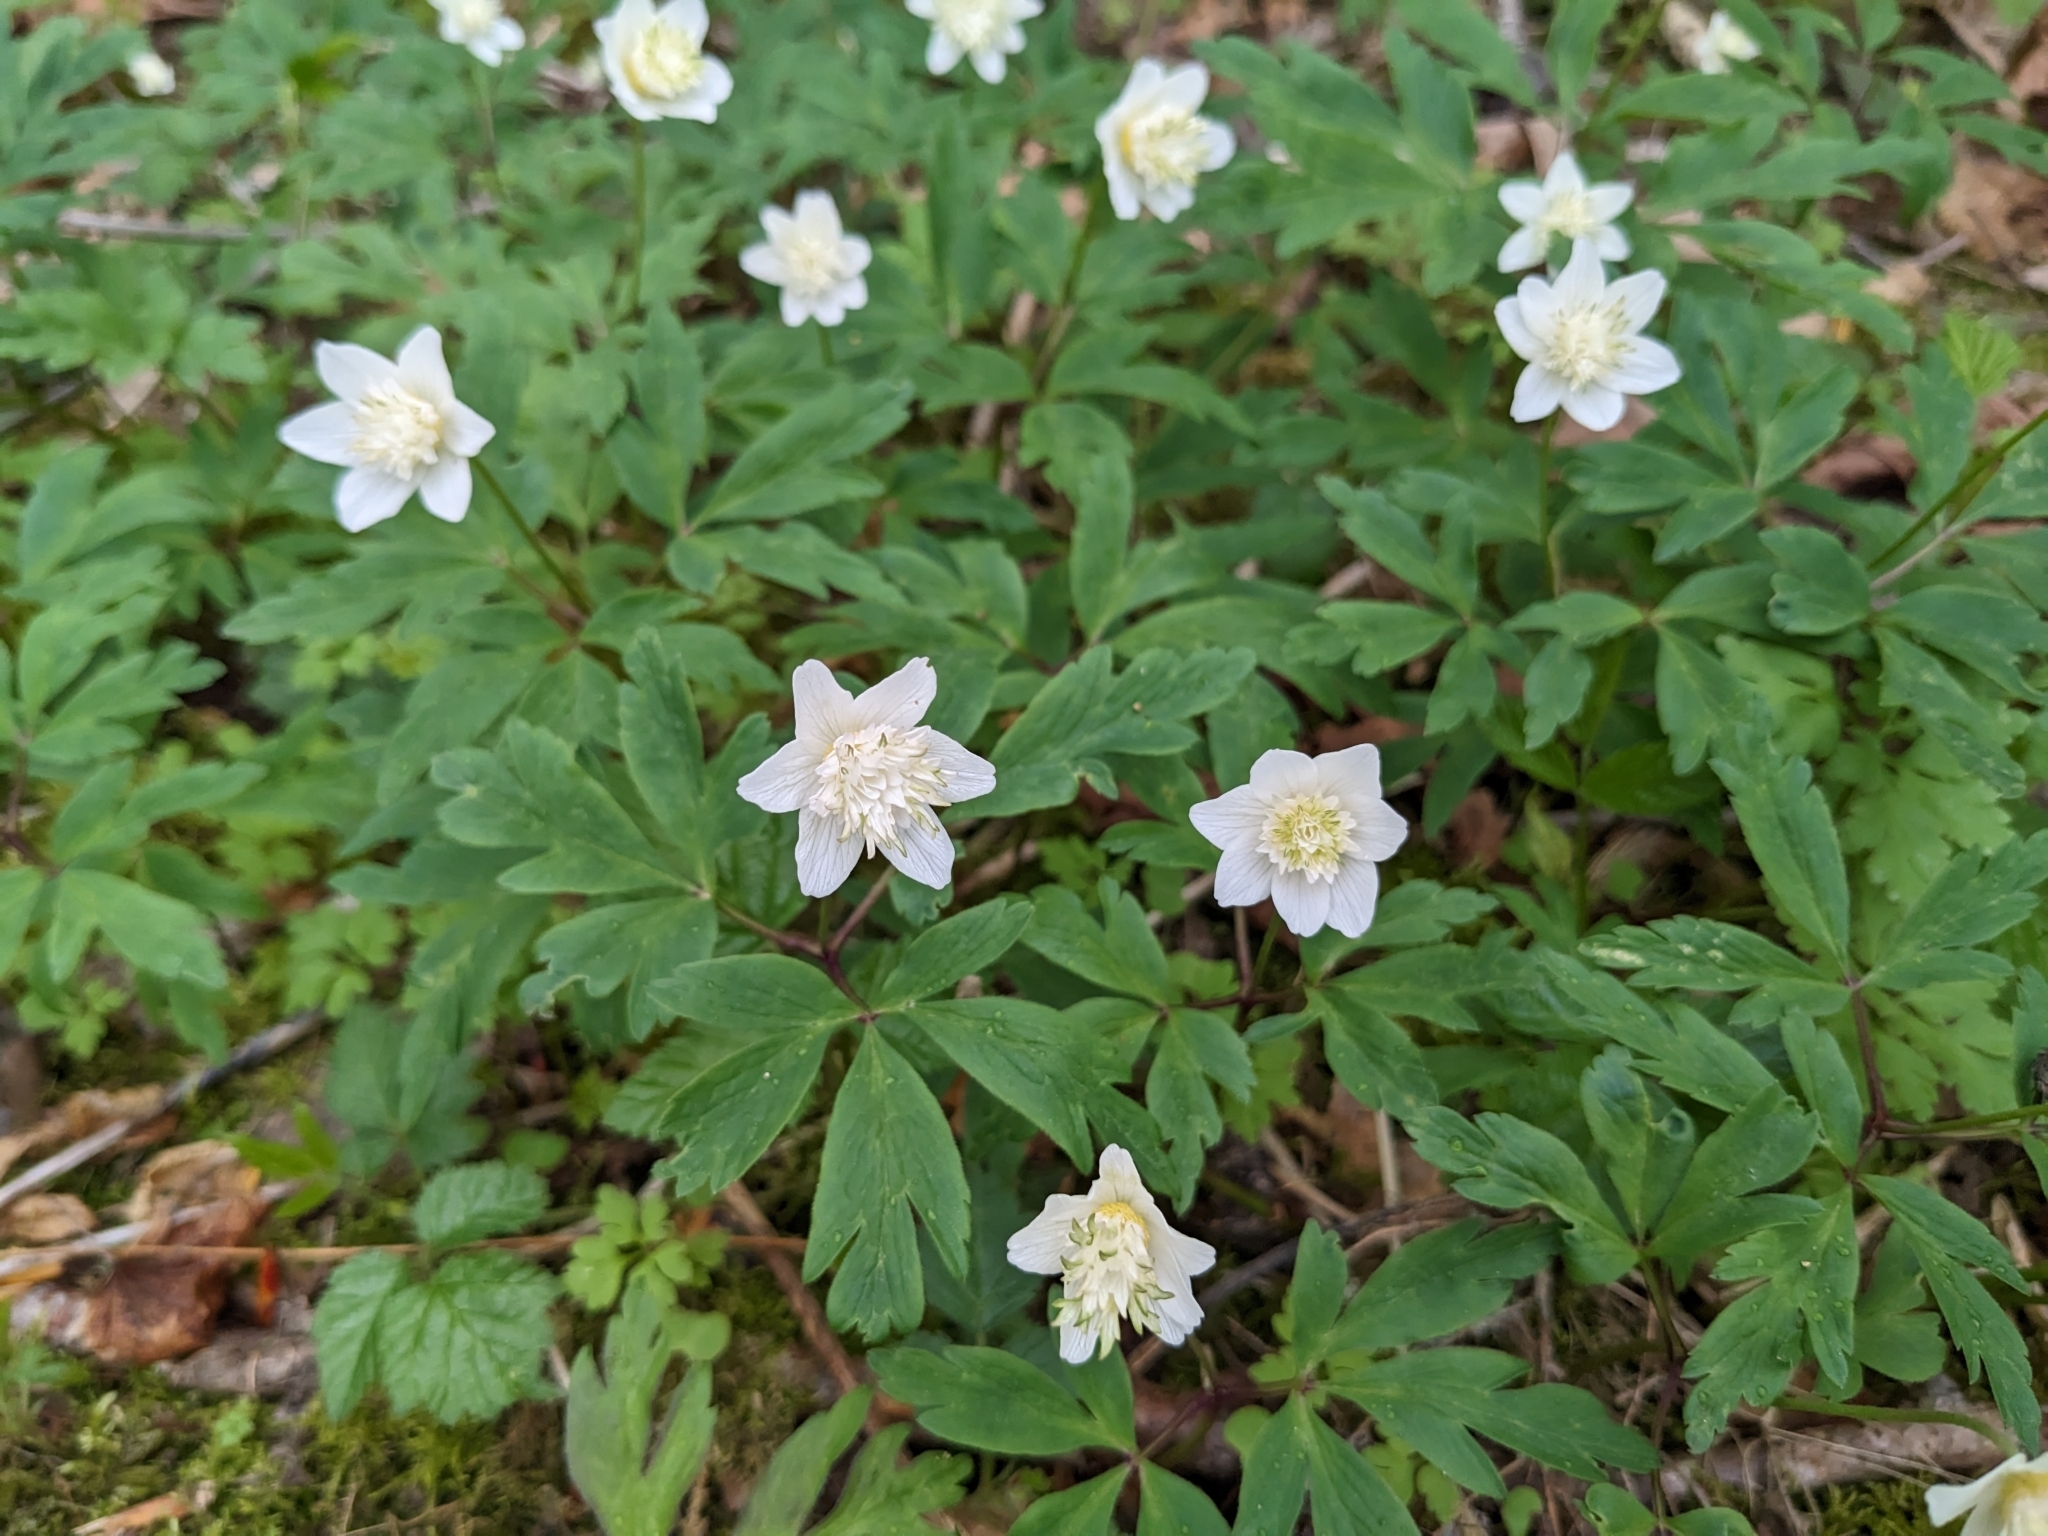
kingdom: Plantae
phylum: Tracheophyta
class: Magnoliopsida
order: Ranunculales
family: Ranunculaceae
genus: Anemone
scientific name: Anemone nemorosa
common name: Wood anemone
